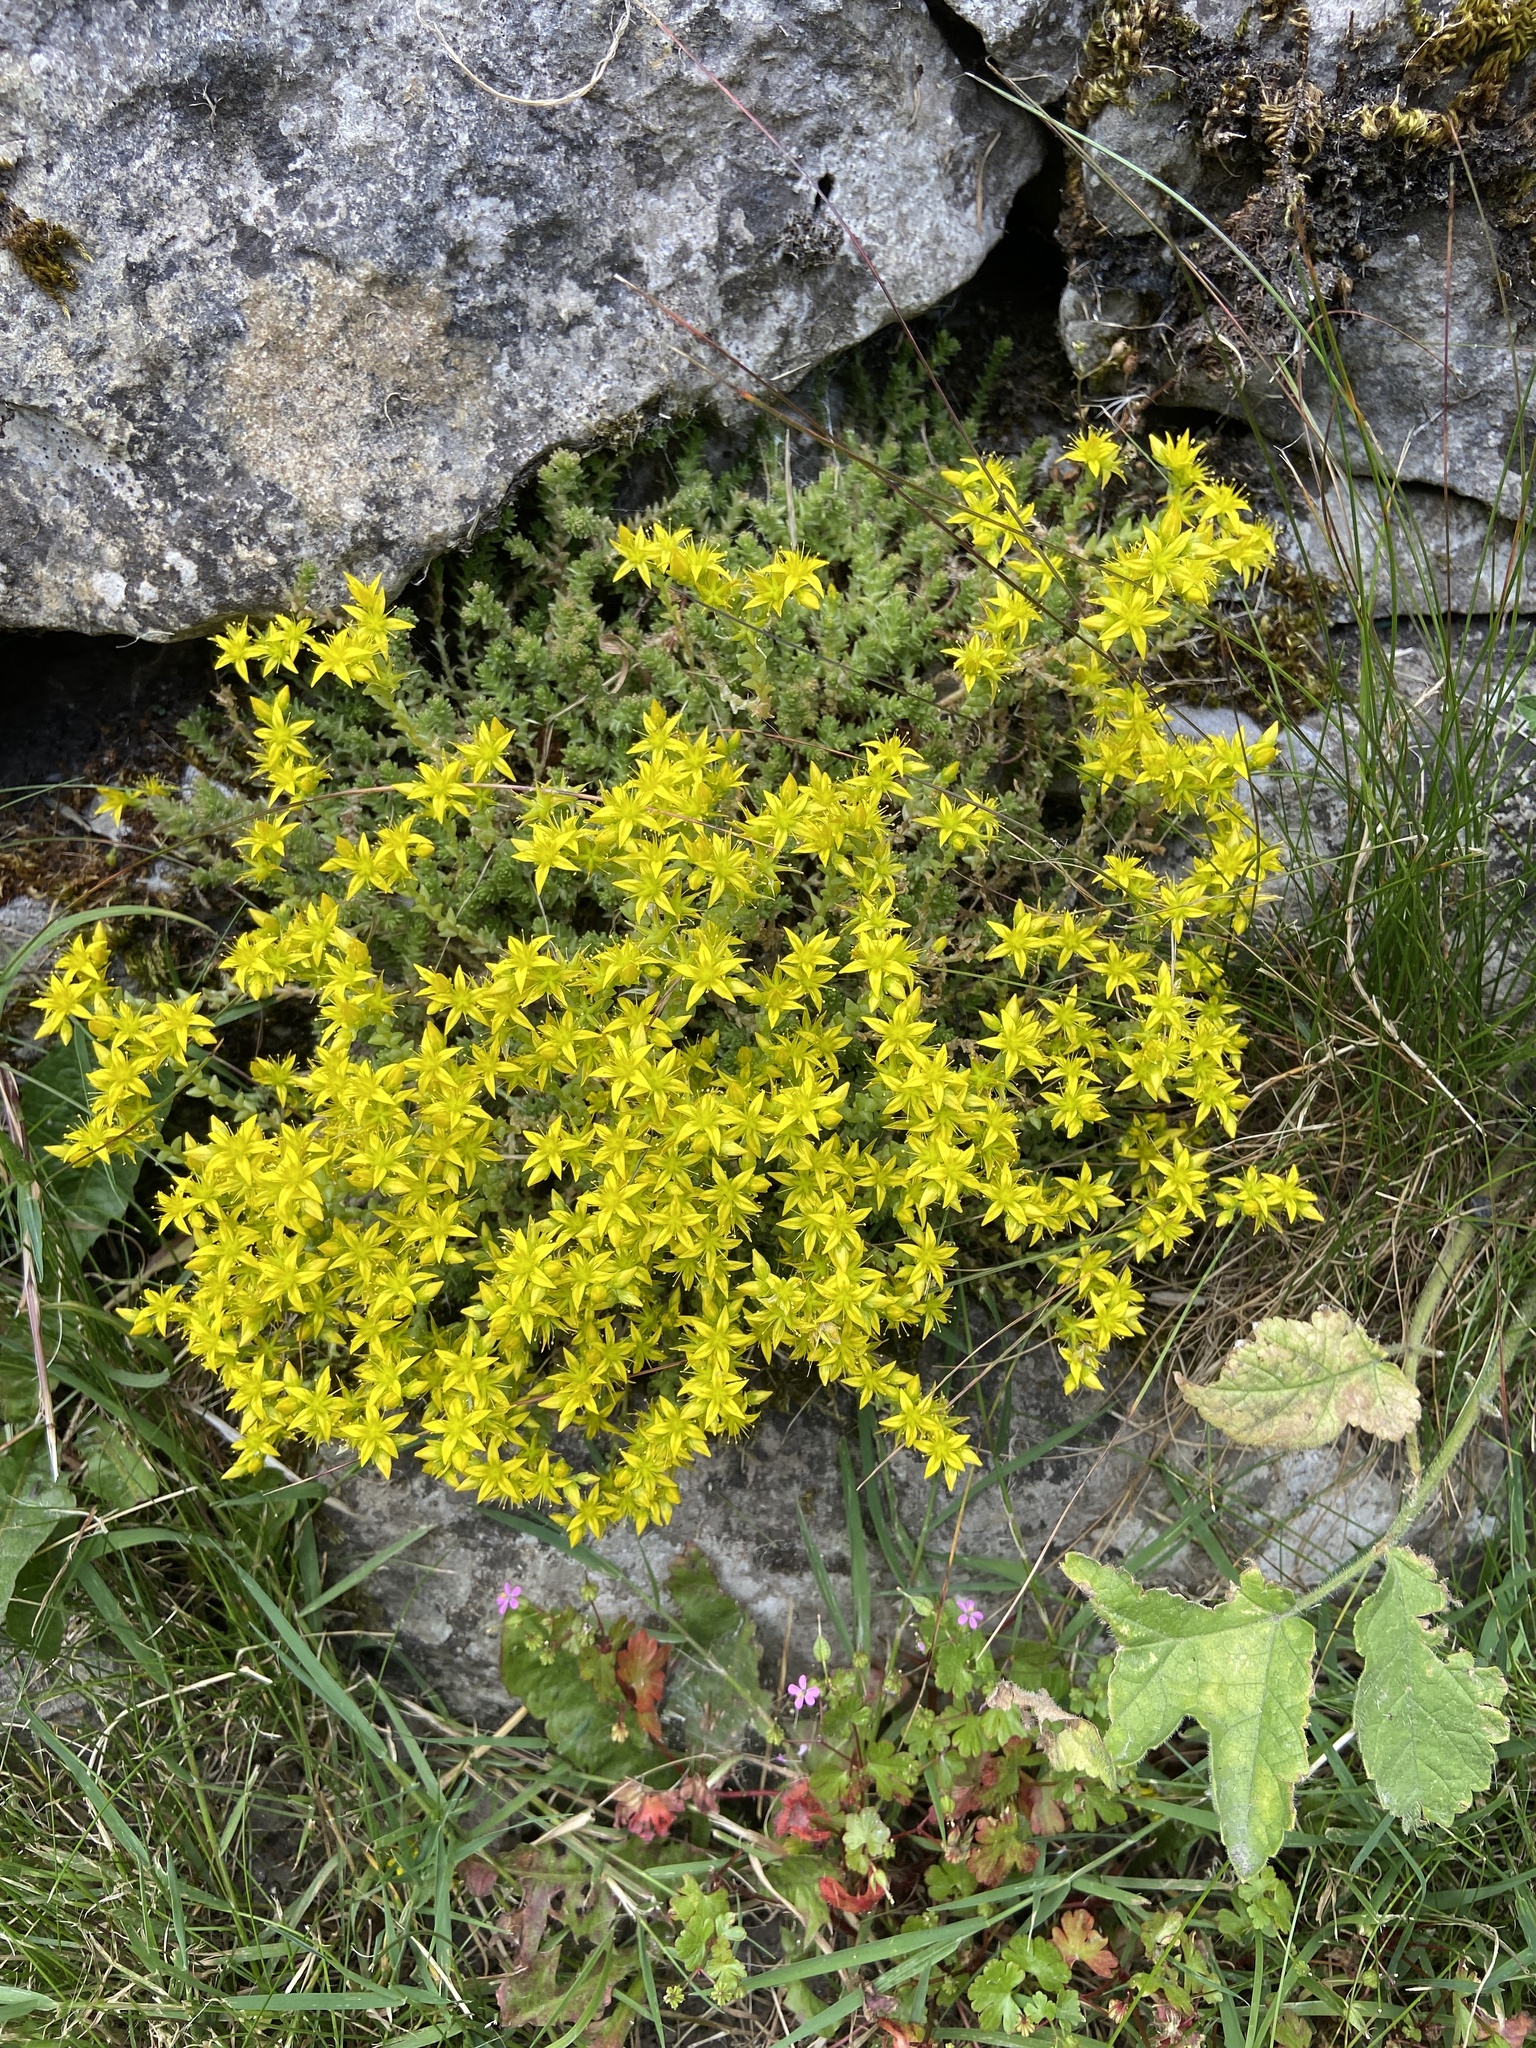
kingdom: Plantae
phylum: Tracheophyta
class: Magnoliopsida
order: Saxifragales
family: Crassulaceae
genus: Sedum
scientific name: Sedum acre
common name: Biting stonecrop
